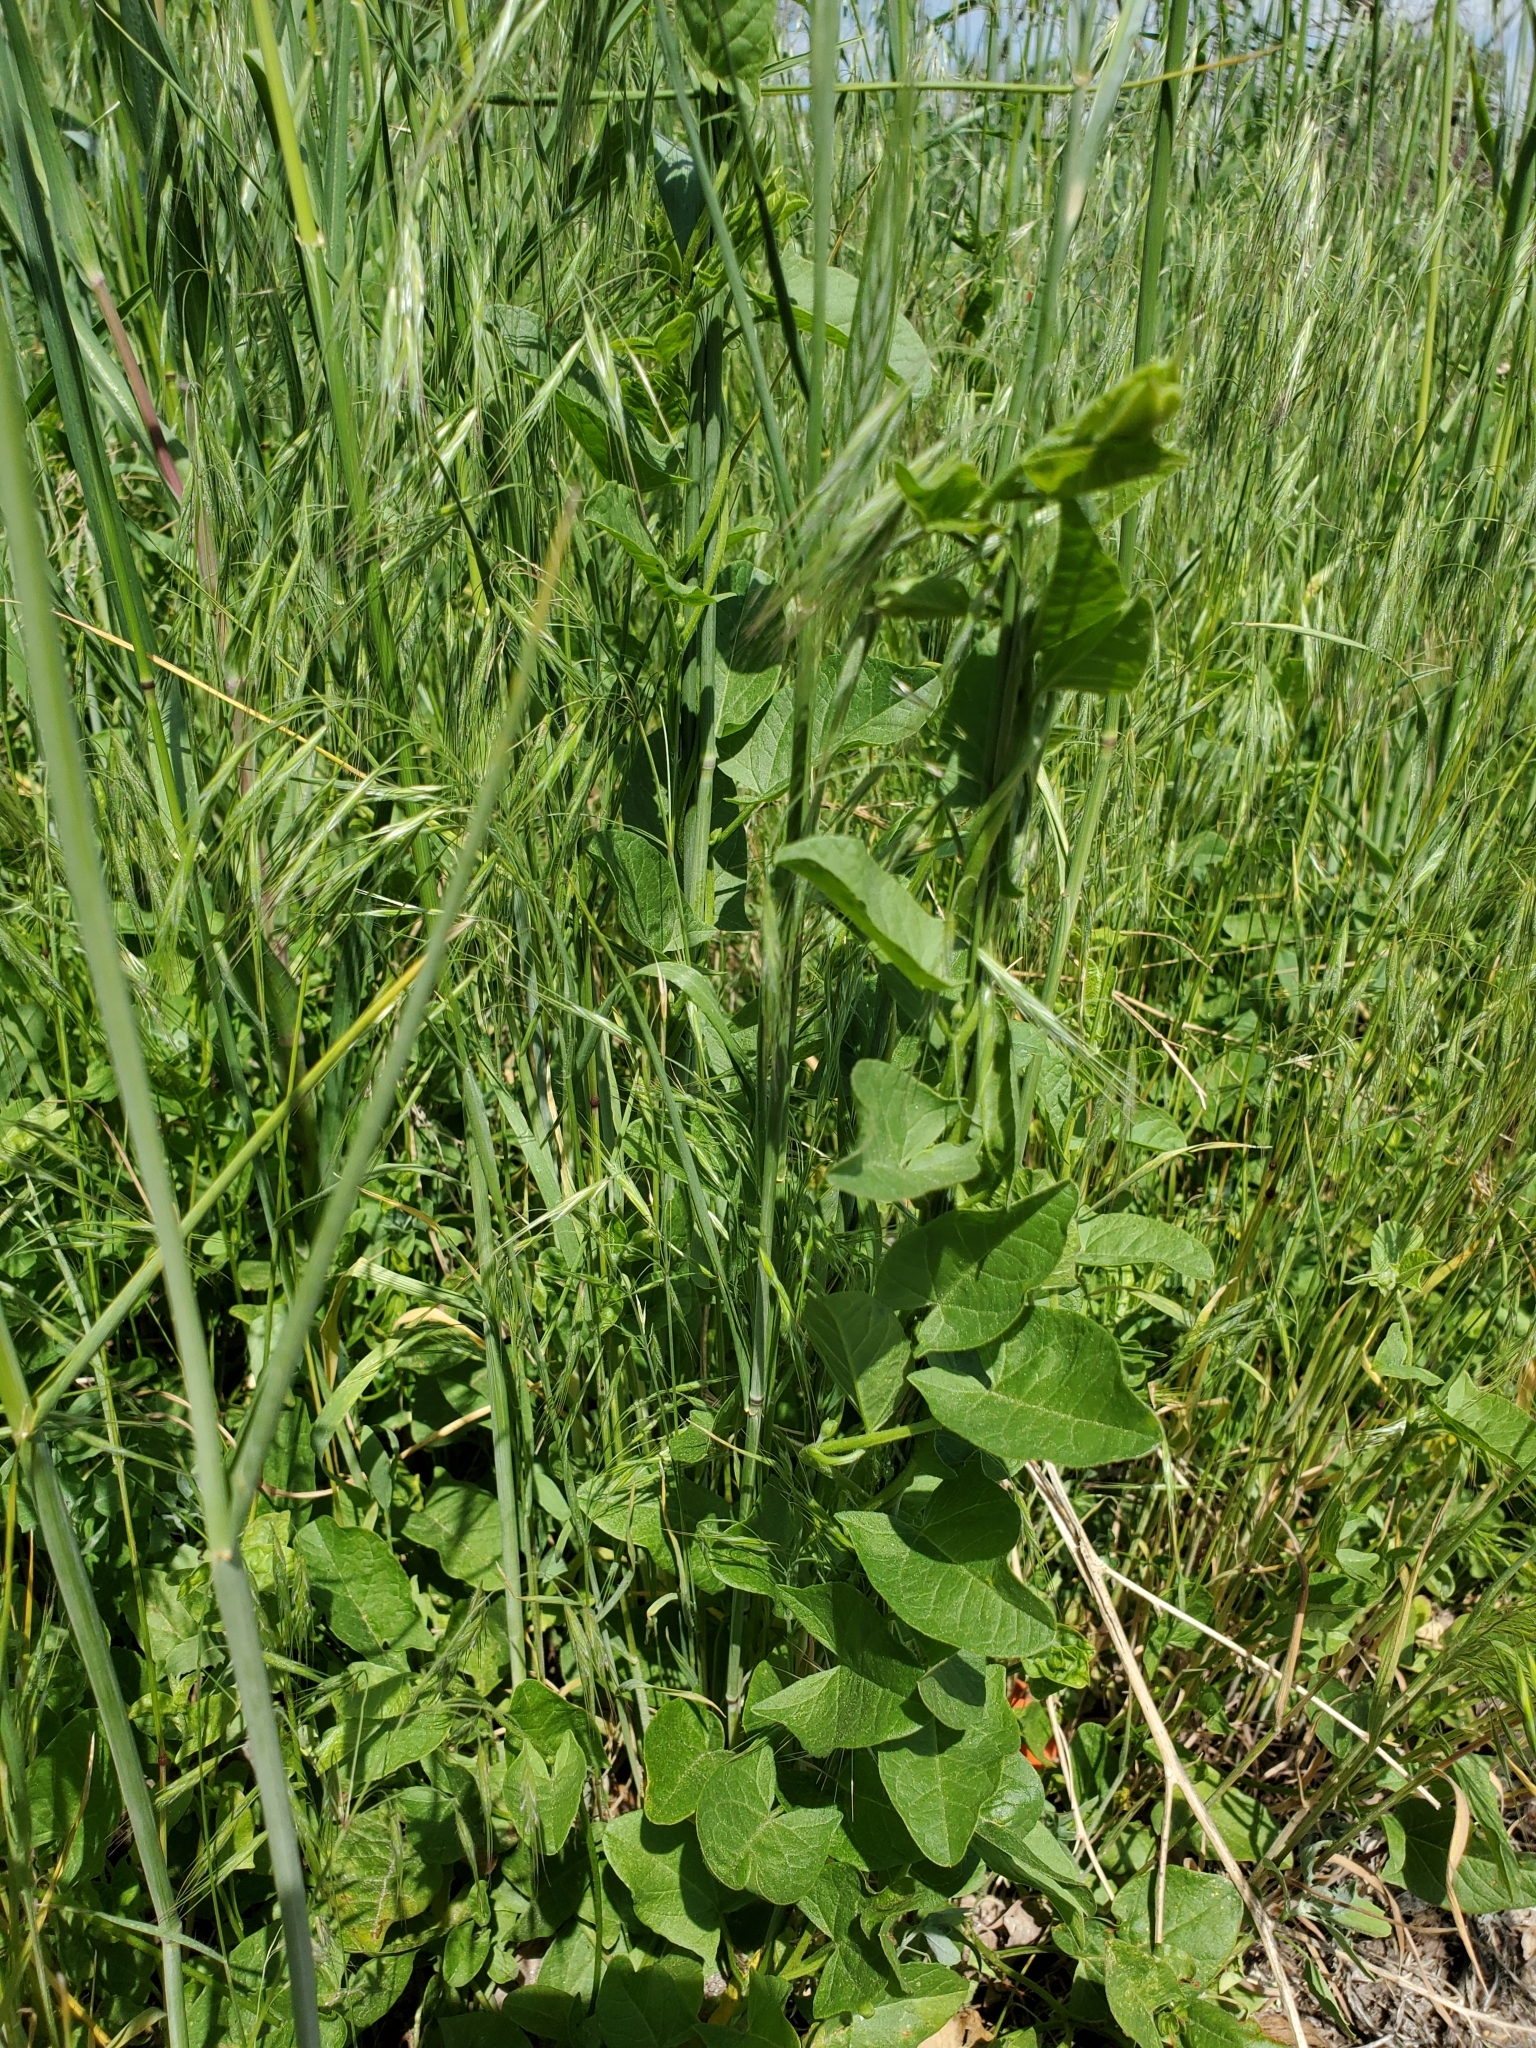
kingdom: Plantae
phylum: Tracheophyta
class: Magnoliopsida
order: Solanales
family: Convolvulaceae
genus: Convolvulus
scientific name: Convolvulus arvensis
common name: Field bindweed
